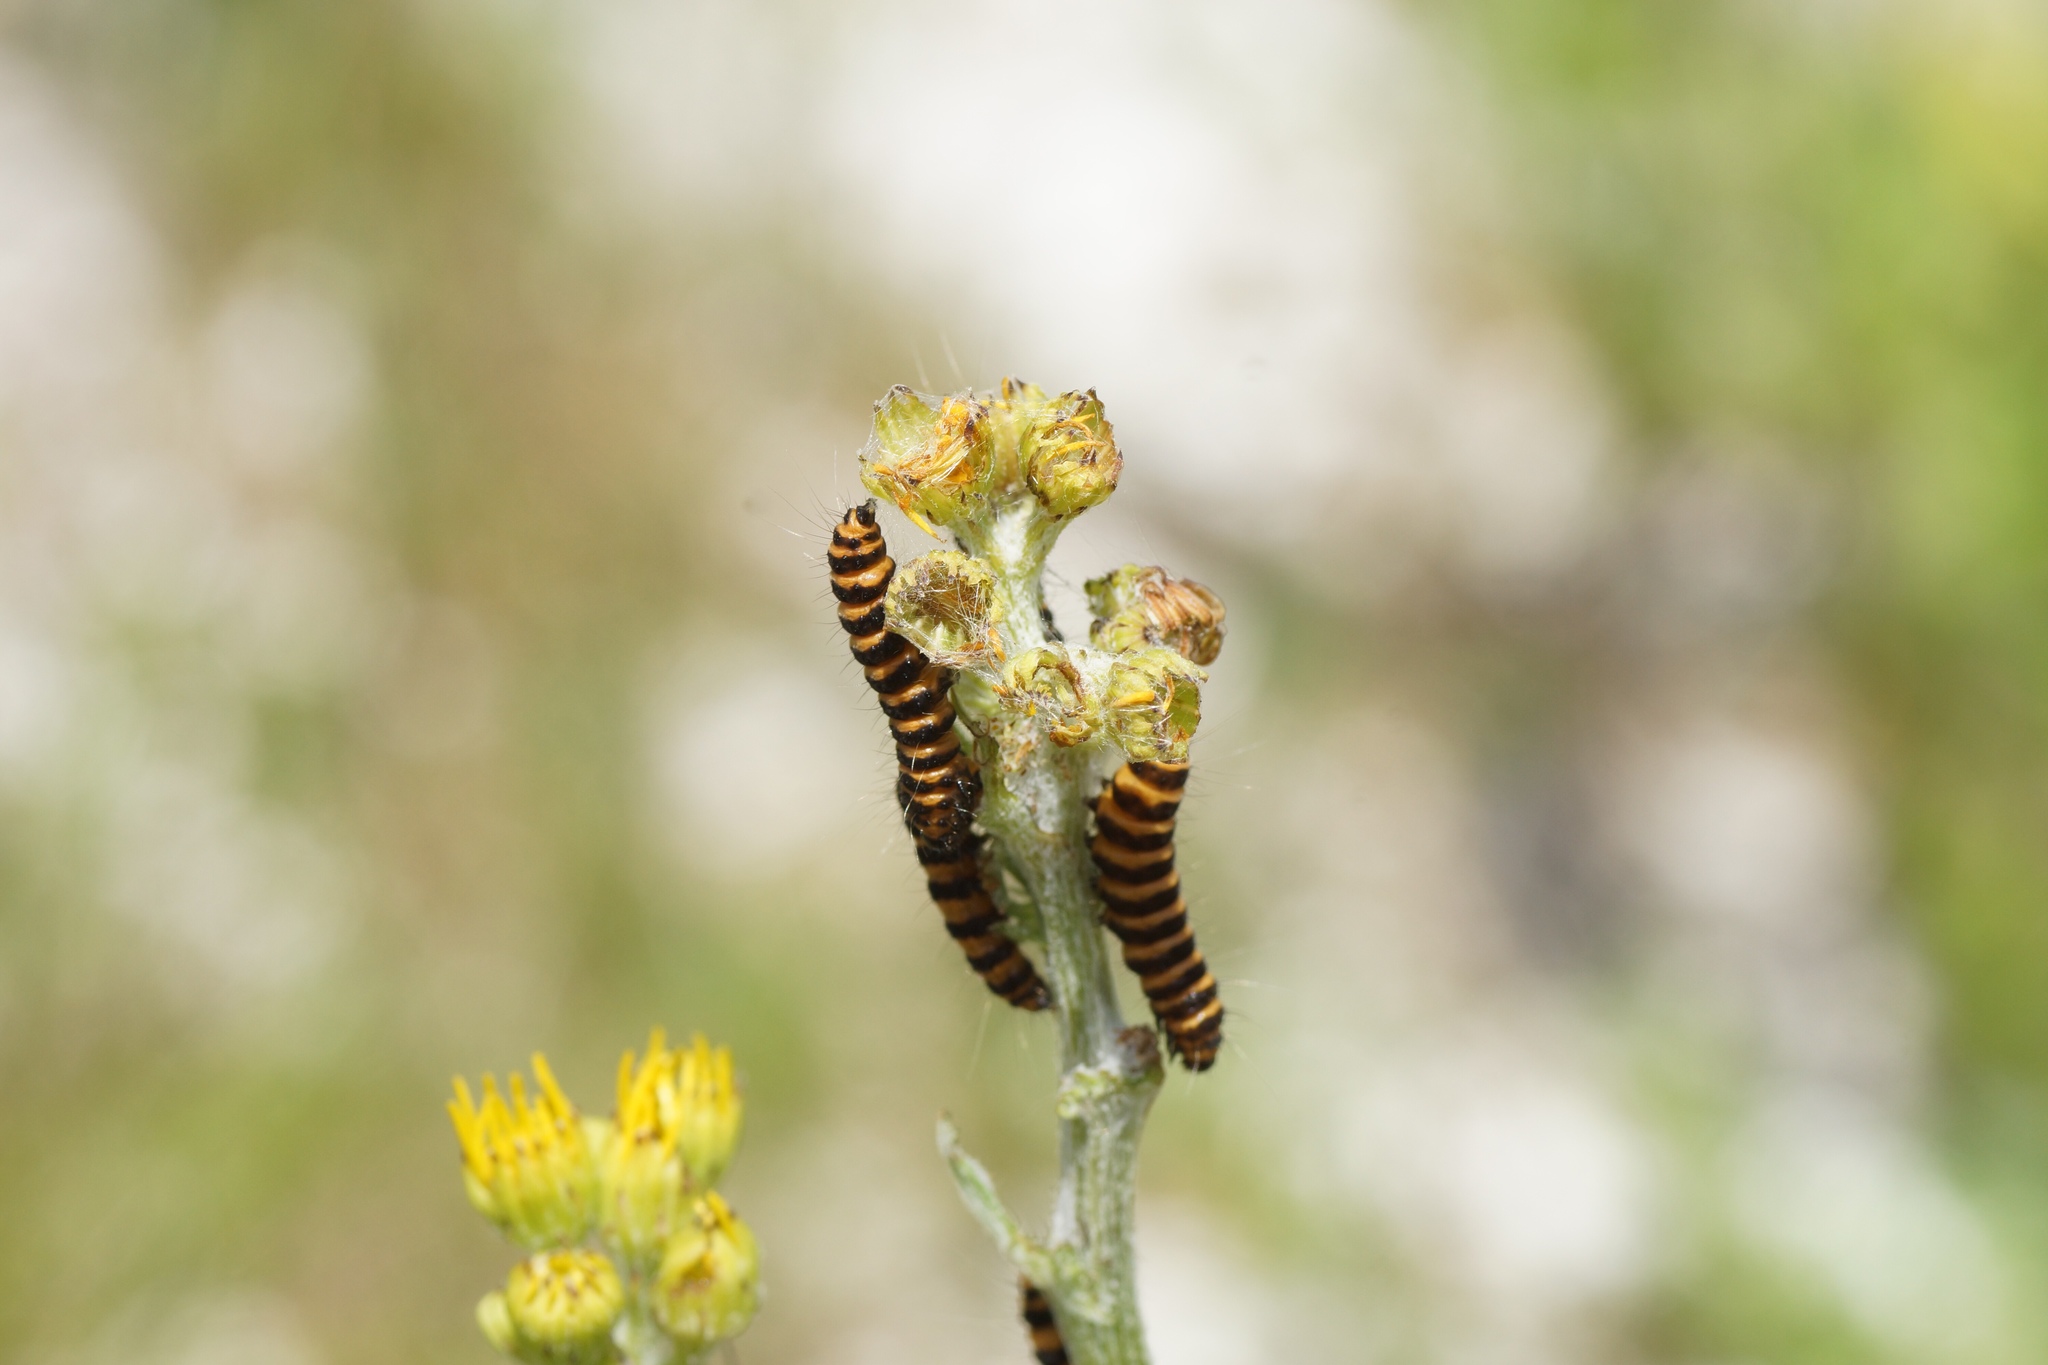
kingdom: Animalia
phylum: Arthropoda
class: Insecta
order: Lepidoptera
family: Erebidae
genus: Tyria
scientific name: Tyria jacobaeae
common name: Cinnabar
